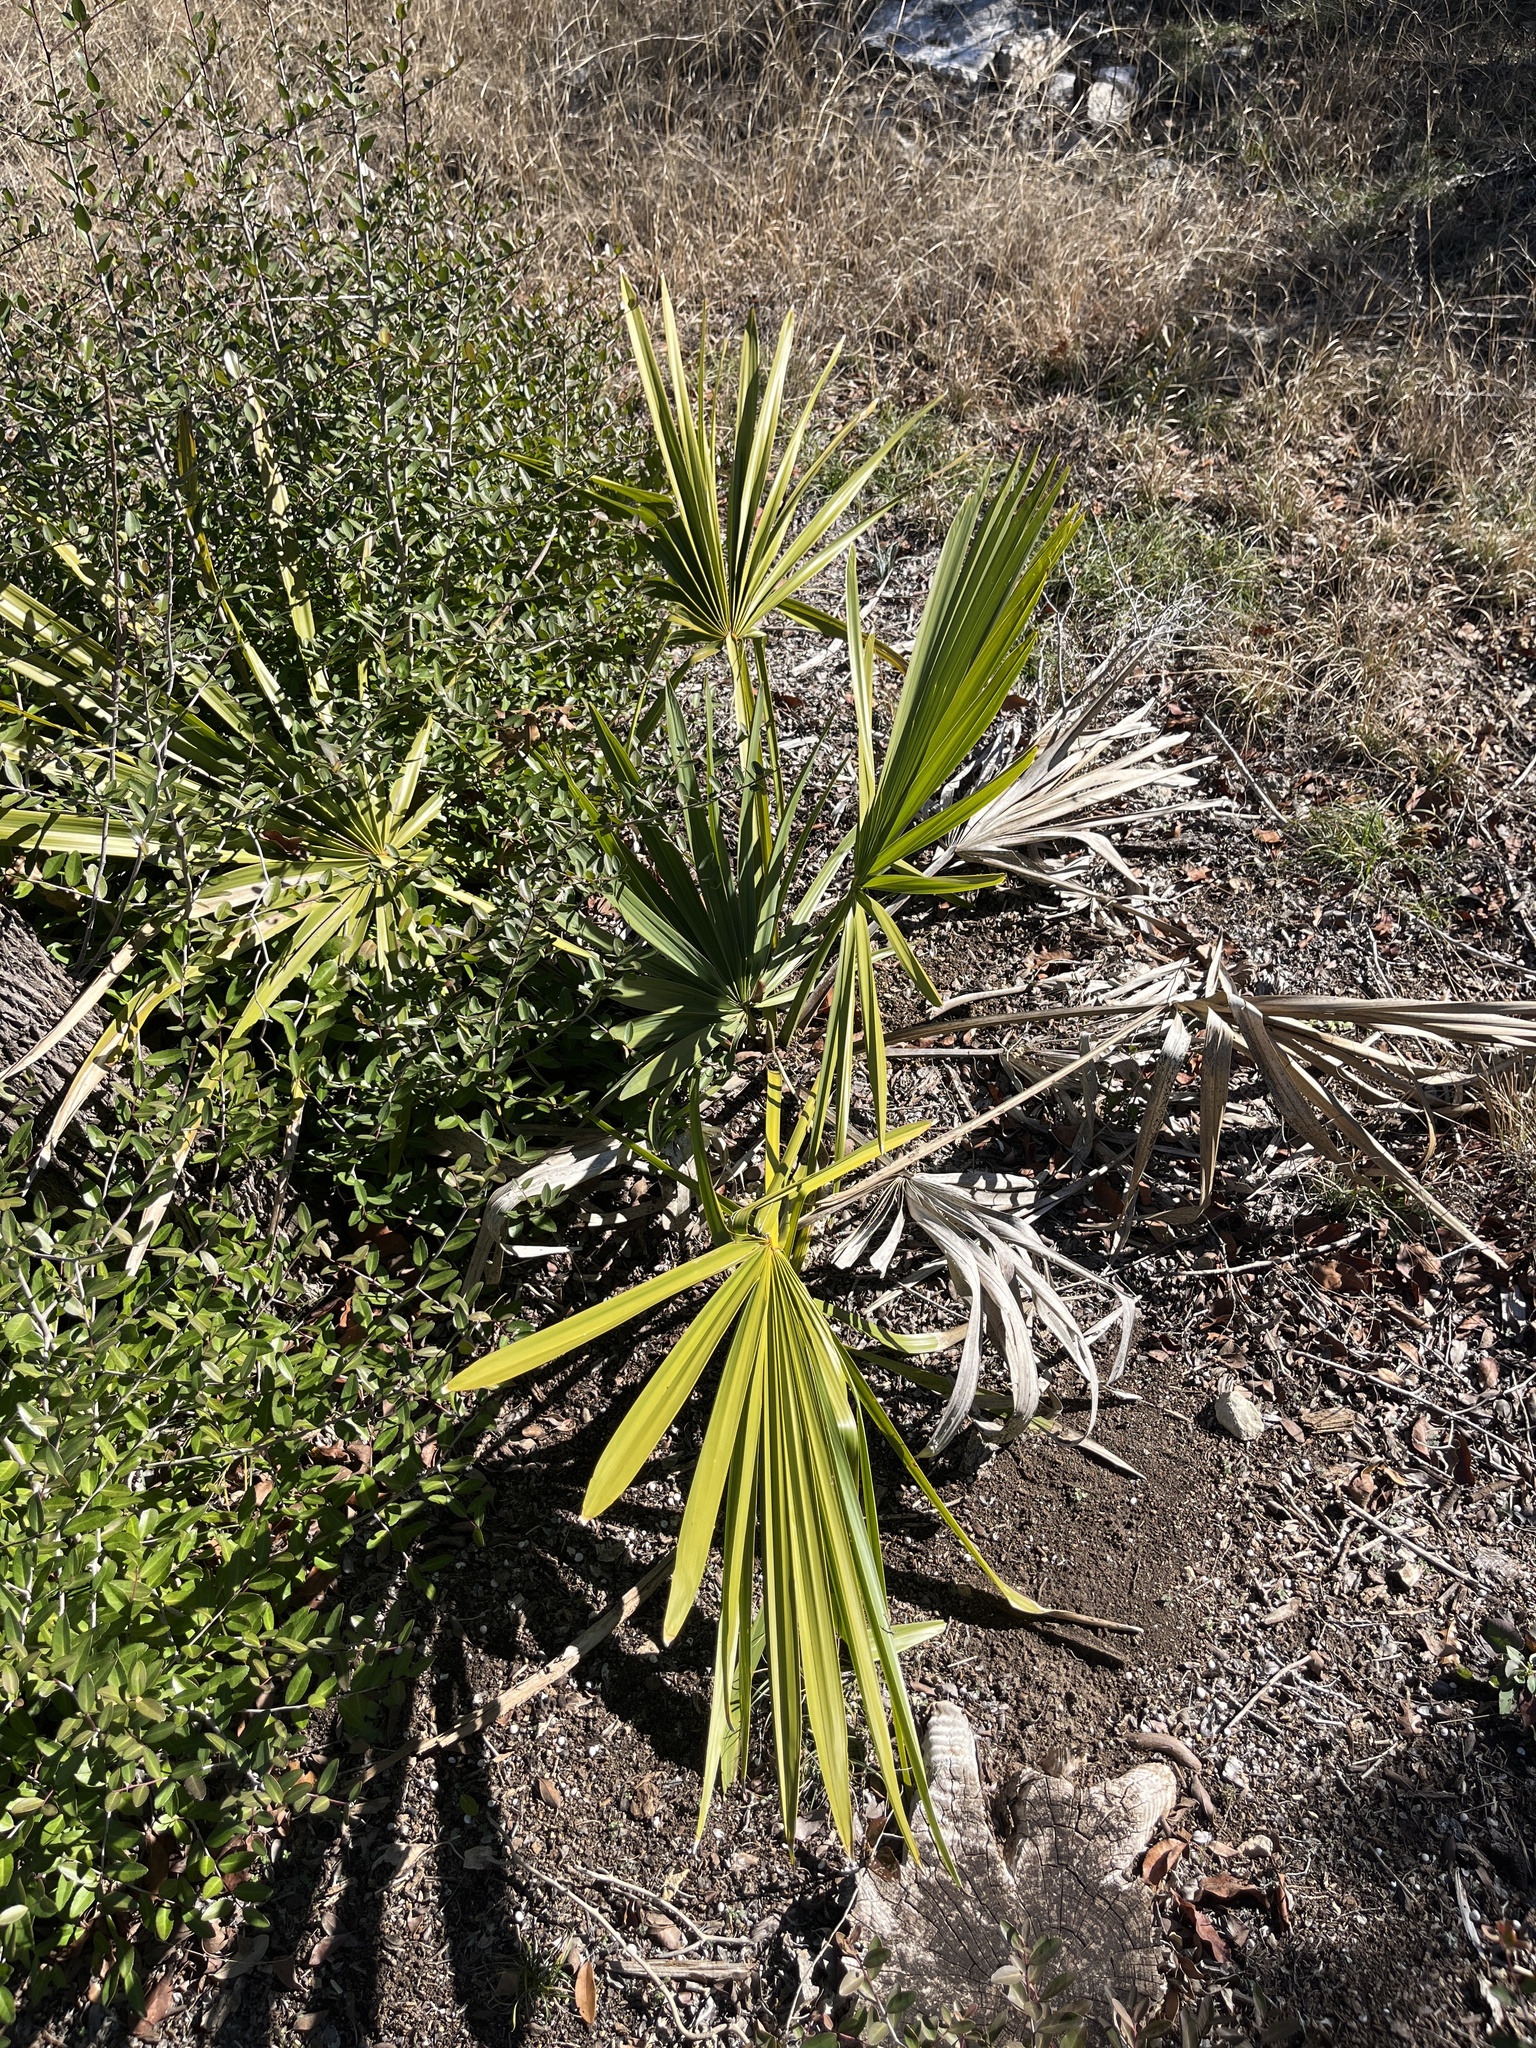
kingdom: Plantae
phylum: Tracheophyta
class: Liliopsida
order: Arecales
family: Arecaceae
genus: Sabal
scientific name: Sabal minor
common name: Dwarf palmetto
